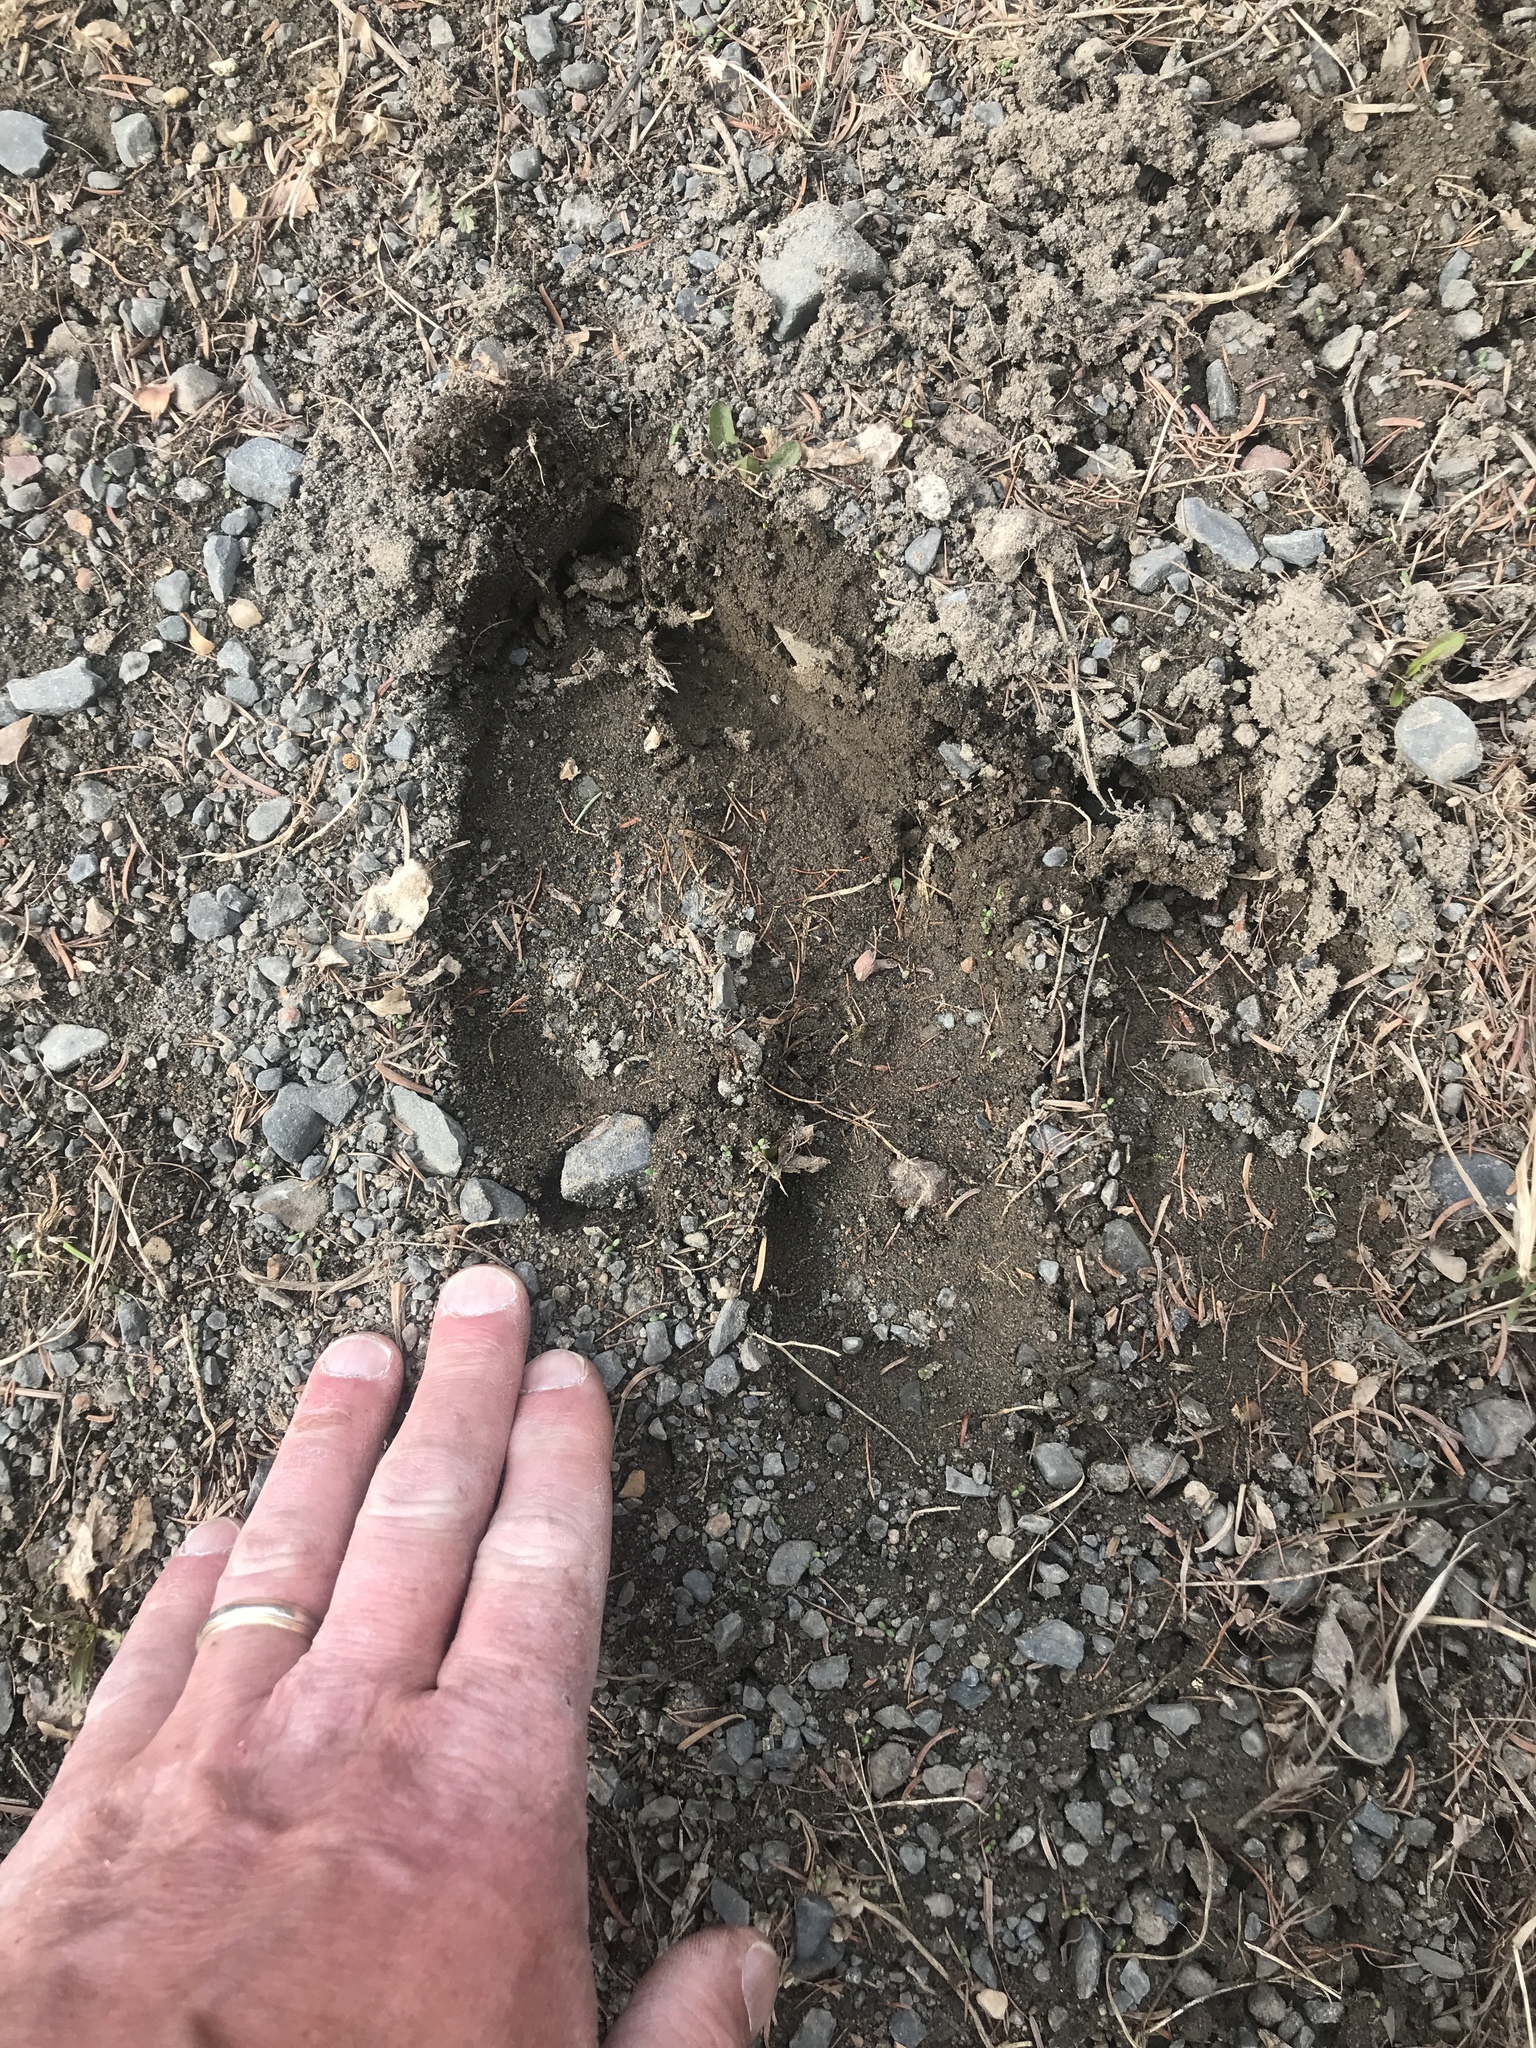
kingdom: Animalia
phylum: Chordata
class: Mammalia
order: Artiodactyla
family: Cervidae
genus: Alces
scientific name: Alces alces
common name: Moose
